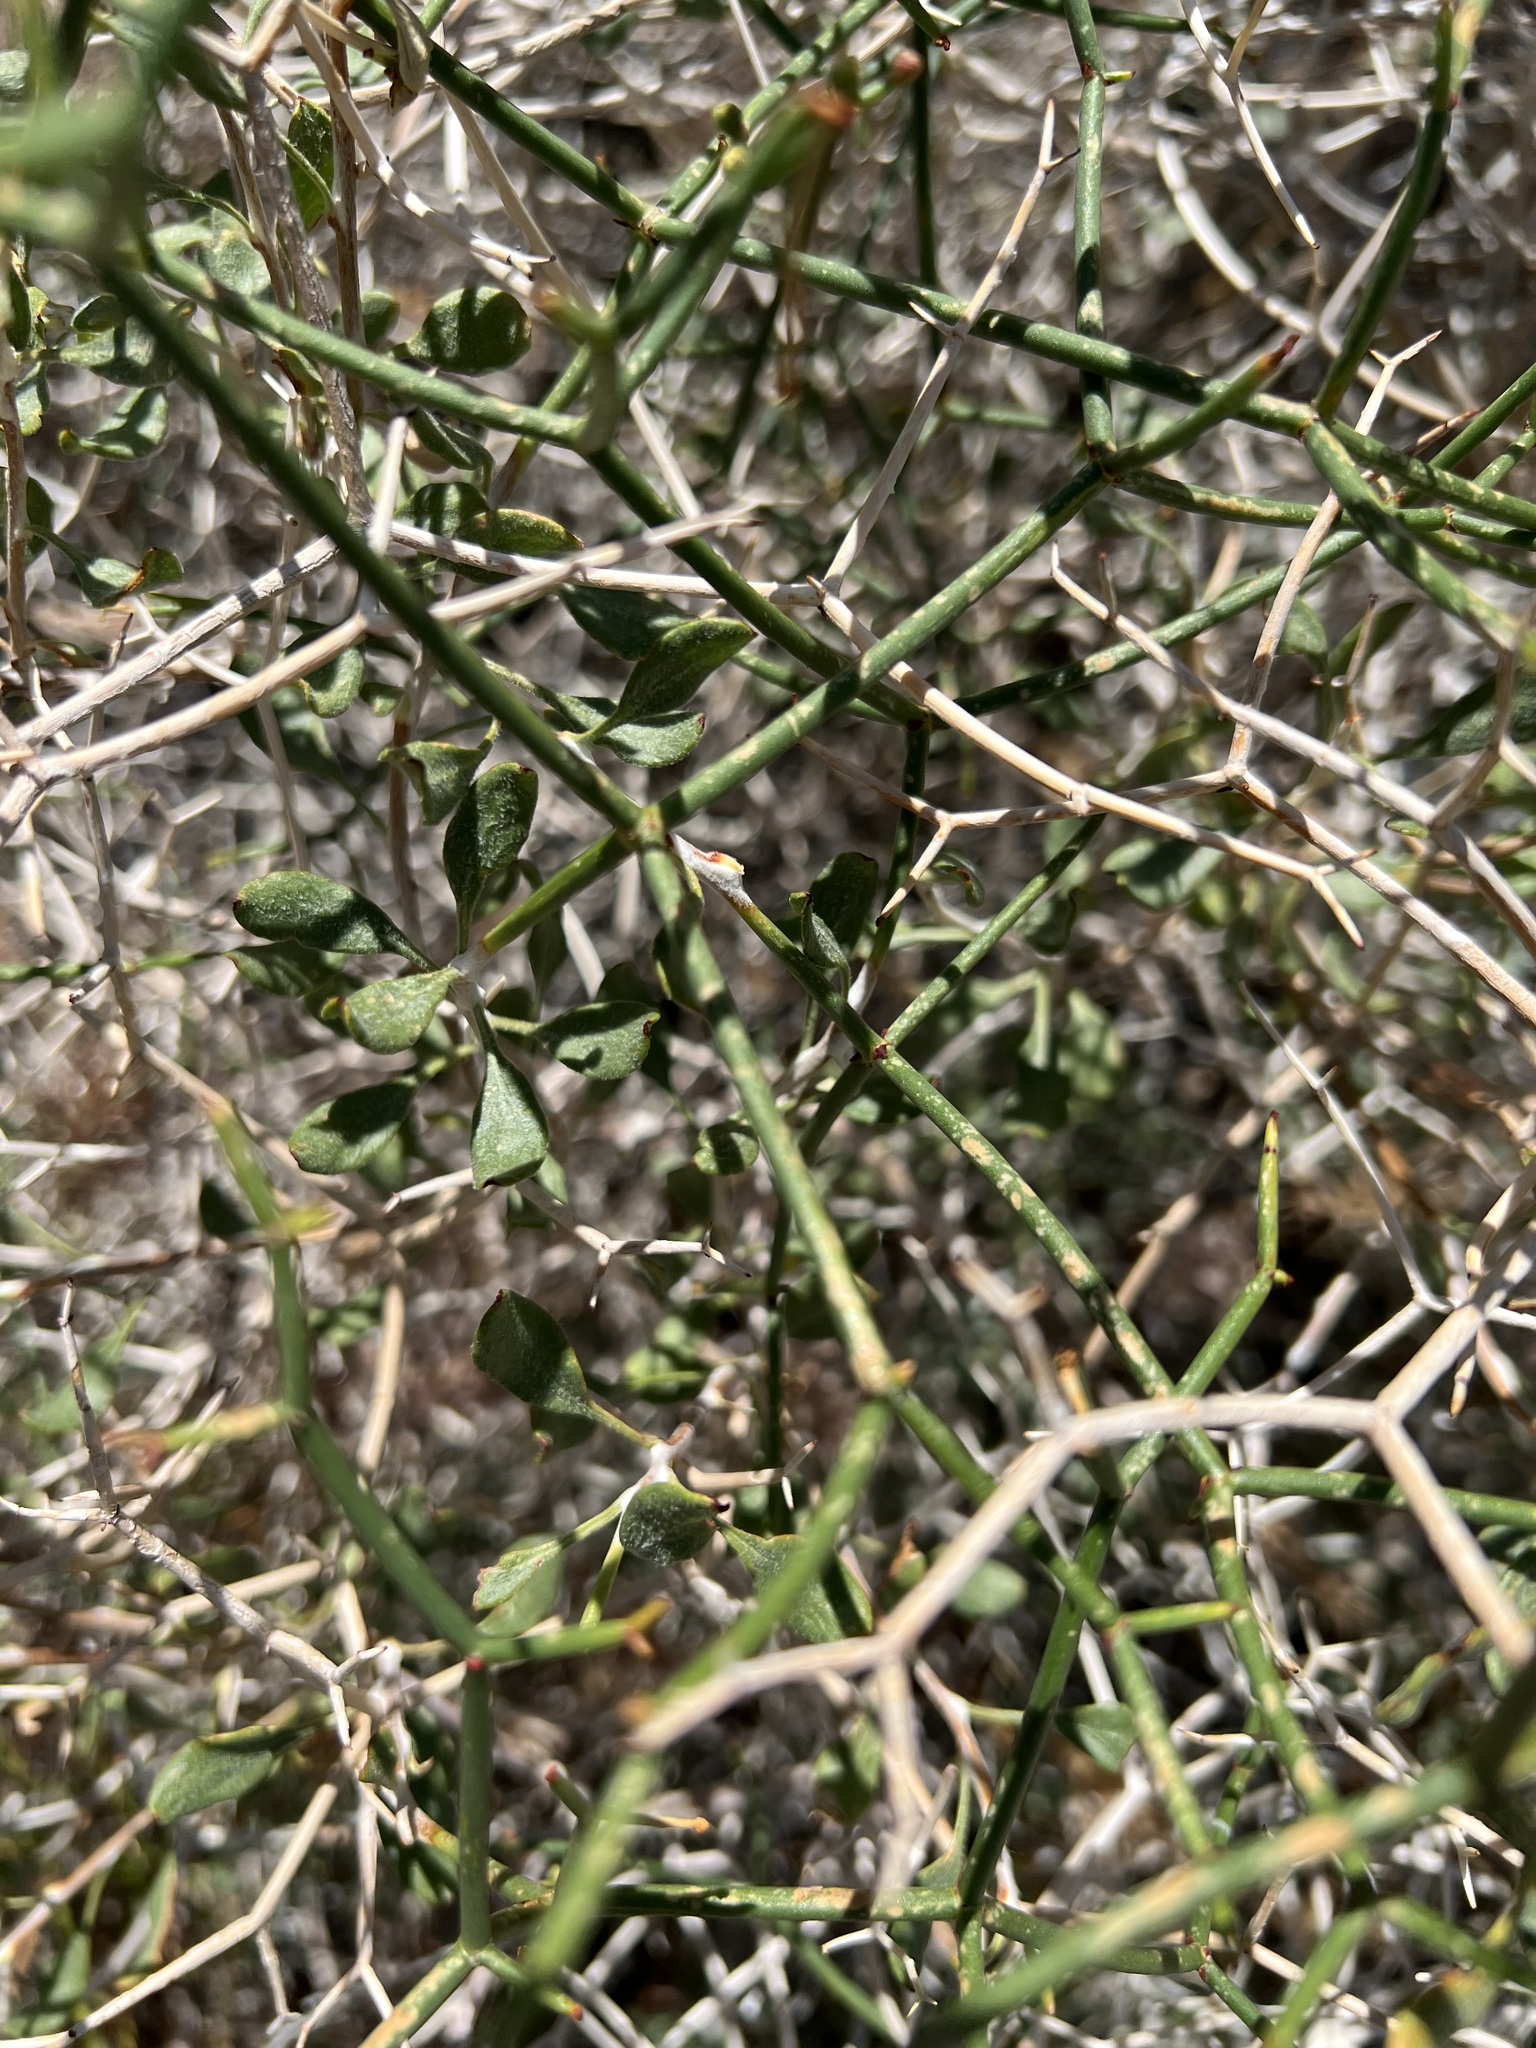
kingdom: Plantae
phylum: Tracheophyta
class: Magnoliopsida
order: Caryophyllales
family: Polygonaceae
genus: Eriogonum
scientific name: Eriogonum heermannii
